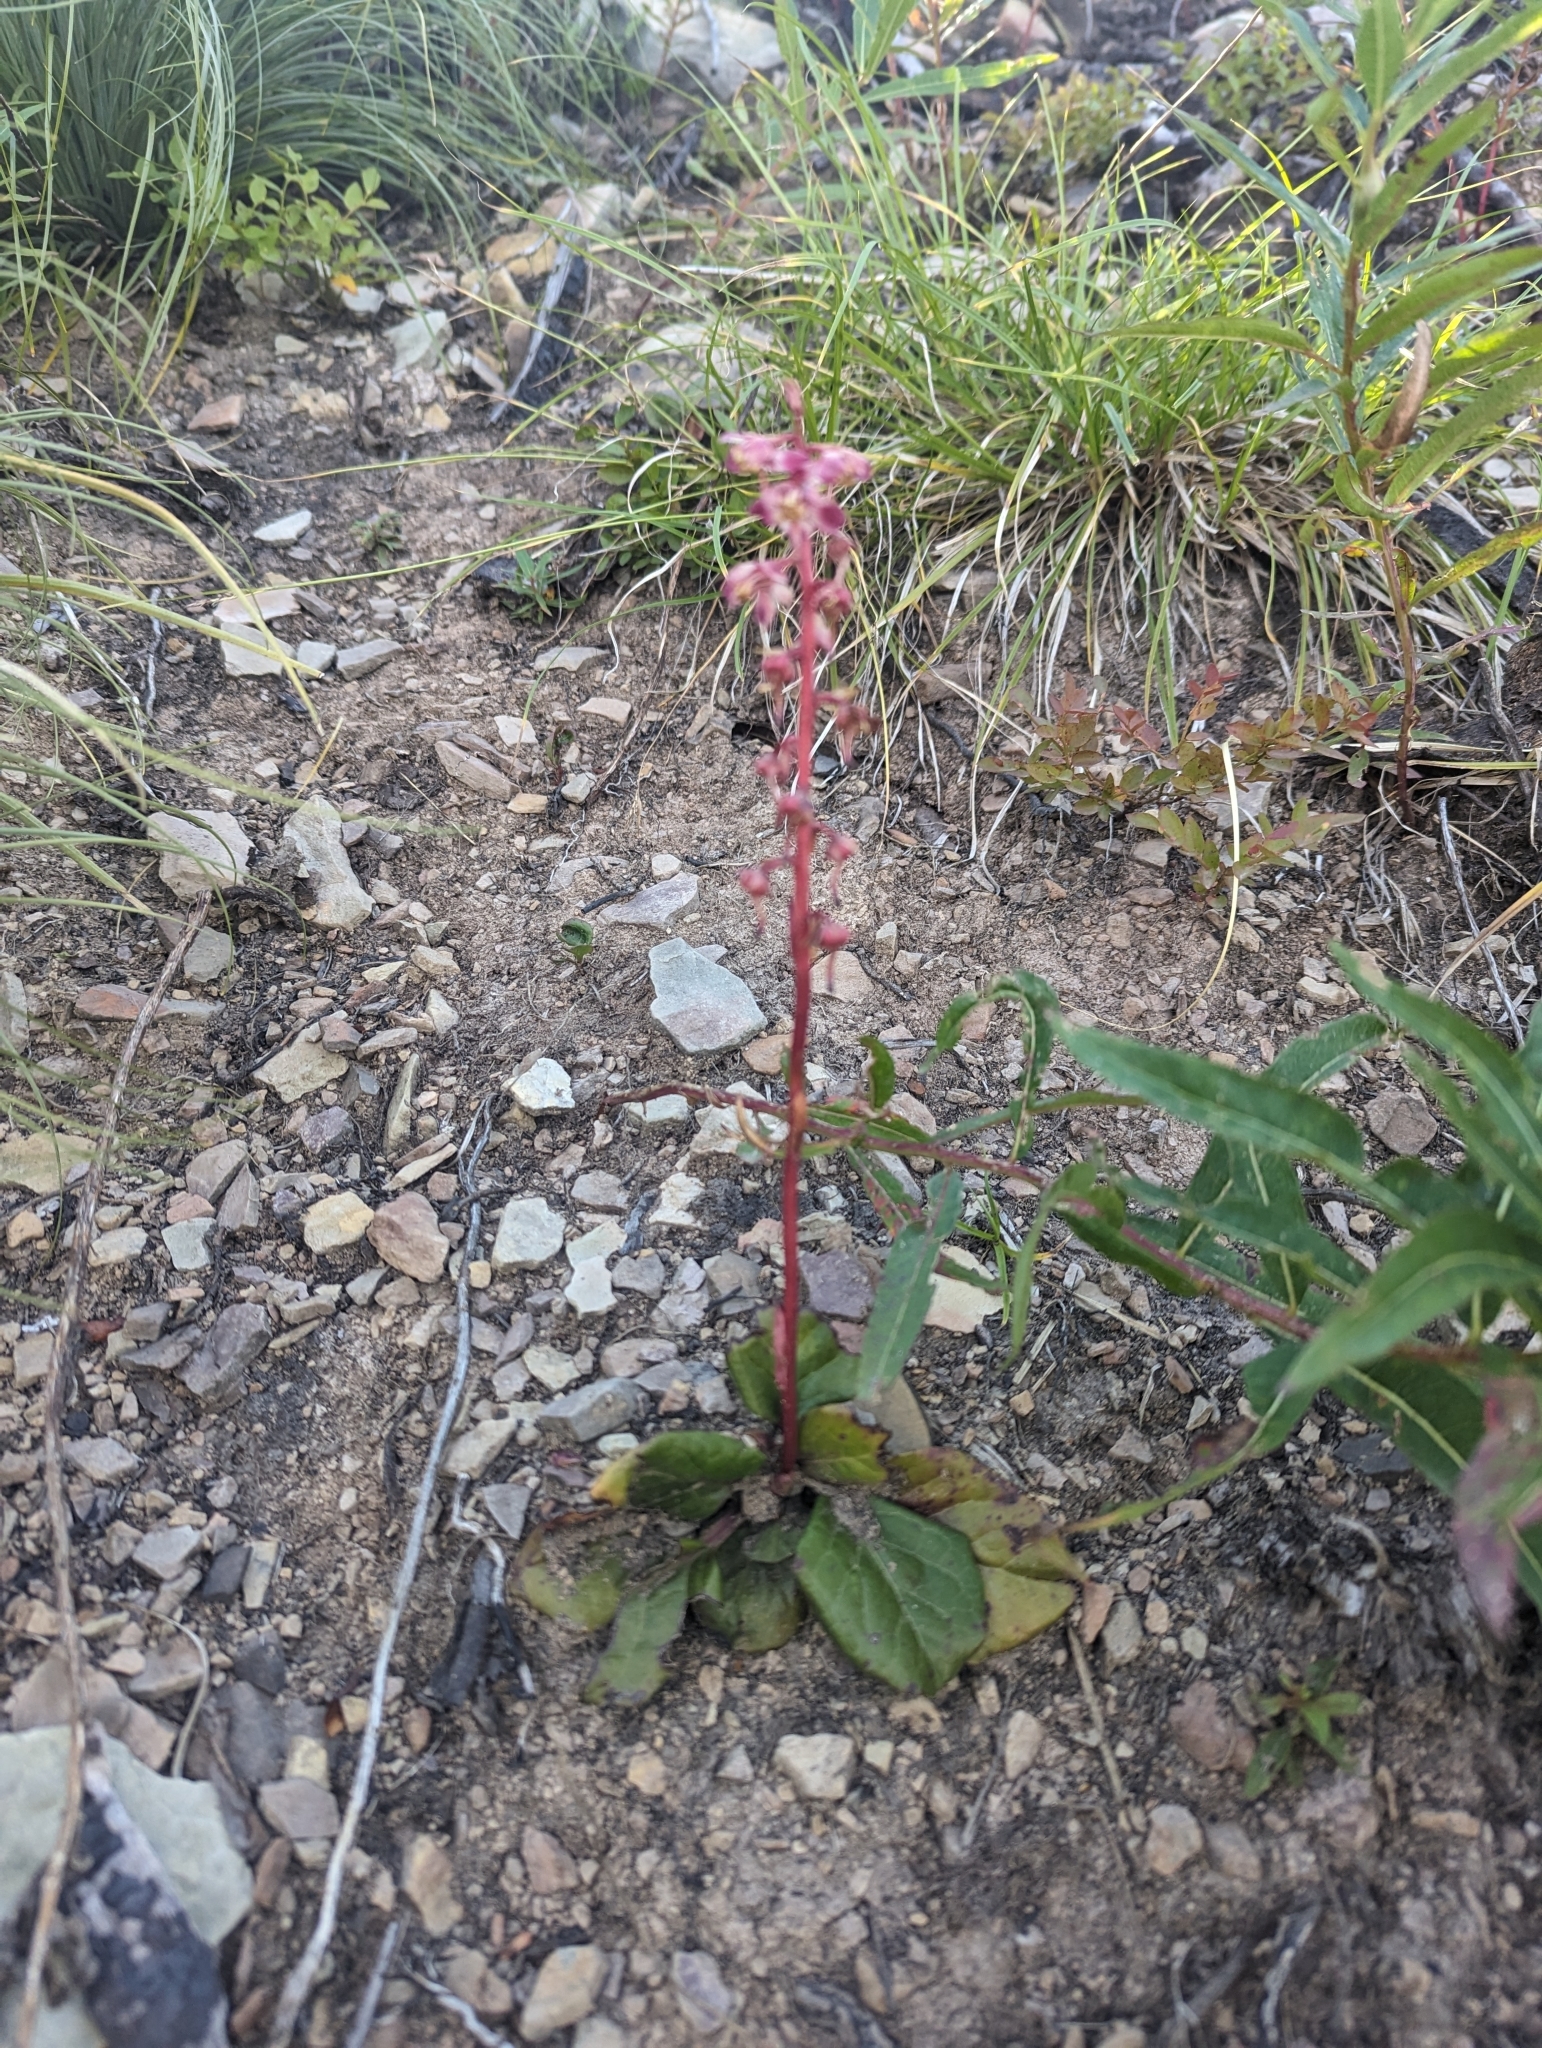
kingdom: Plantae
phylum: Tracheophyta
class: Magnoliopsida
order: Ericales
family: Ericaceae
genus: Pyrola
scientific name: Pyrola asarifolia
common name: Bog wintergreen
